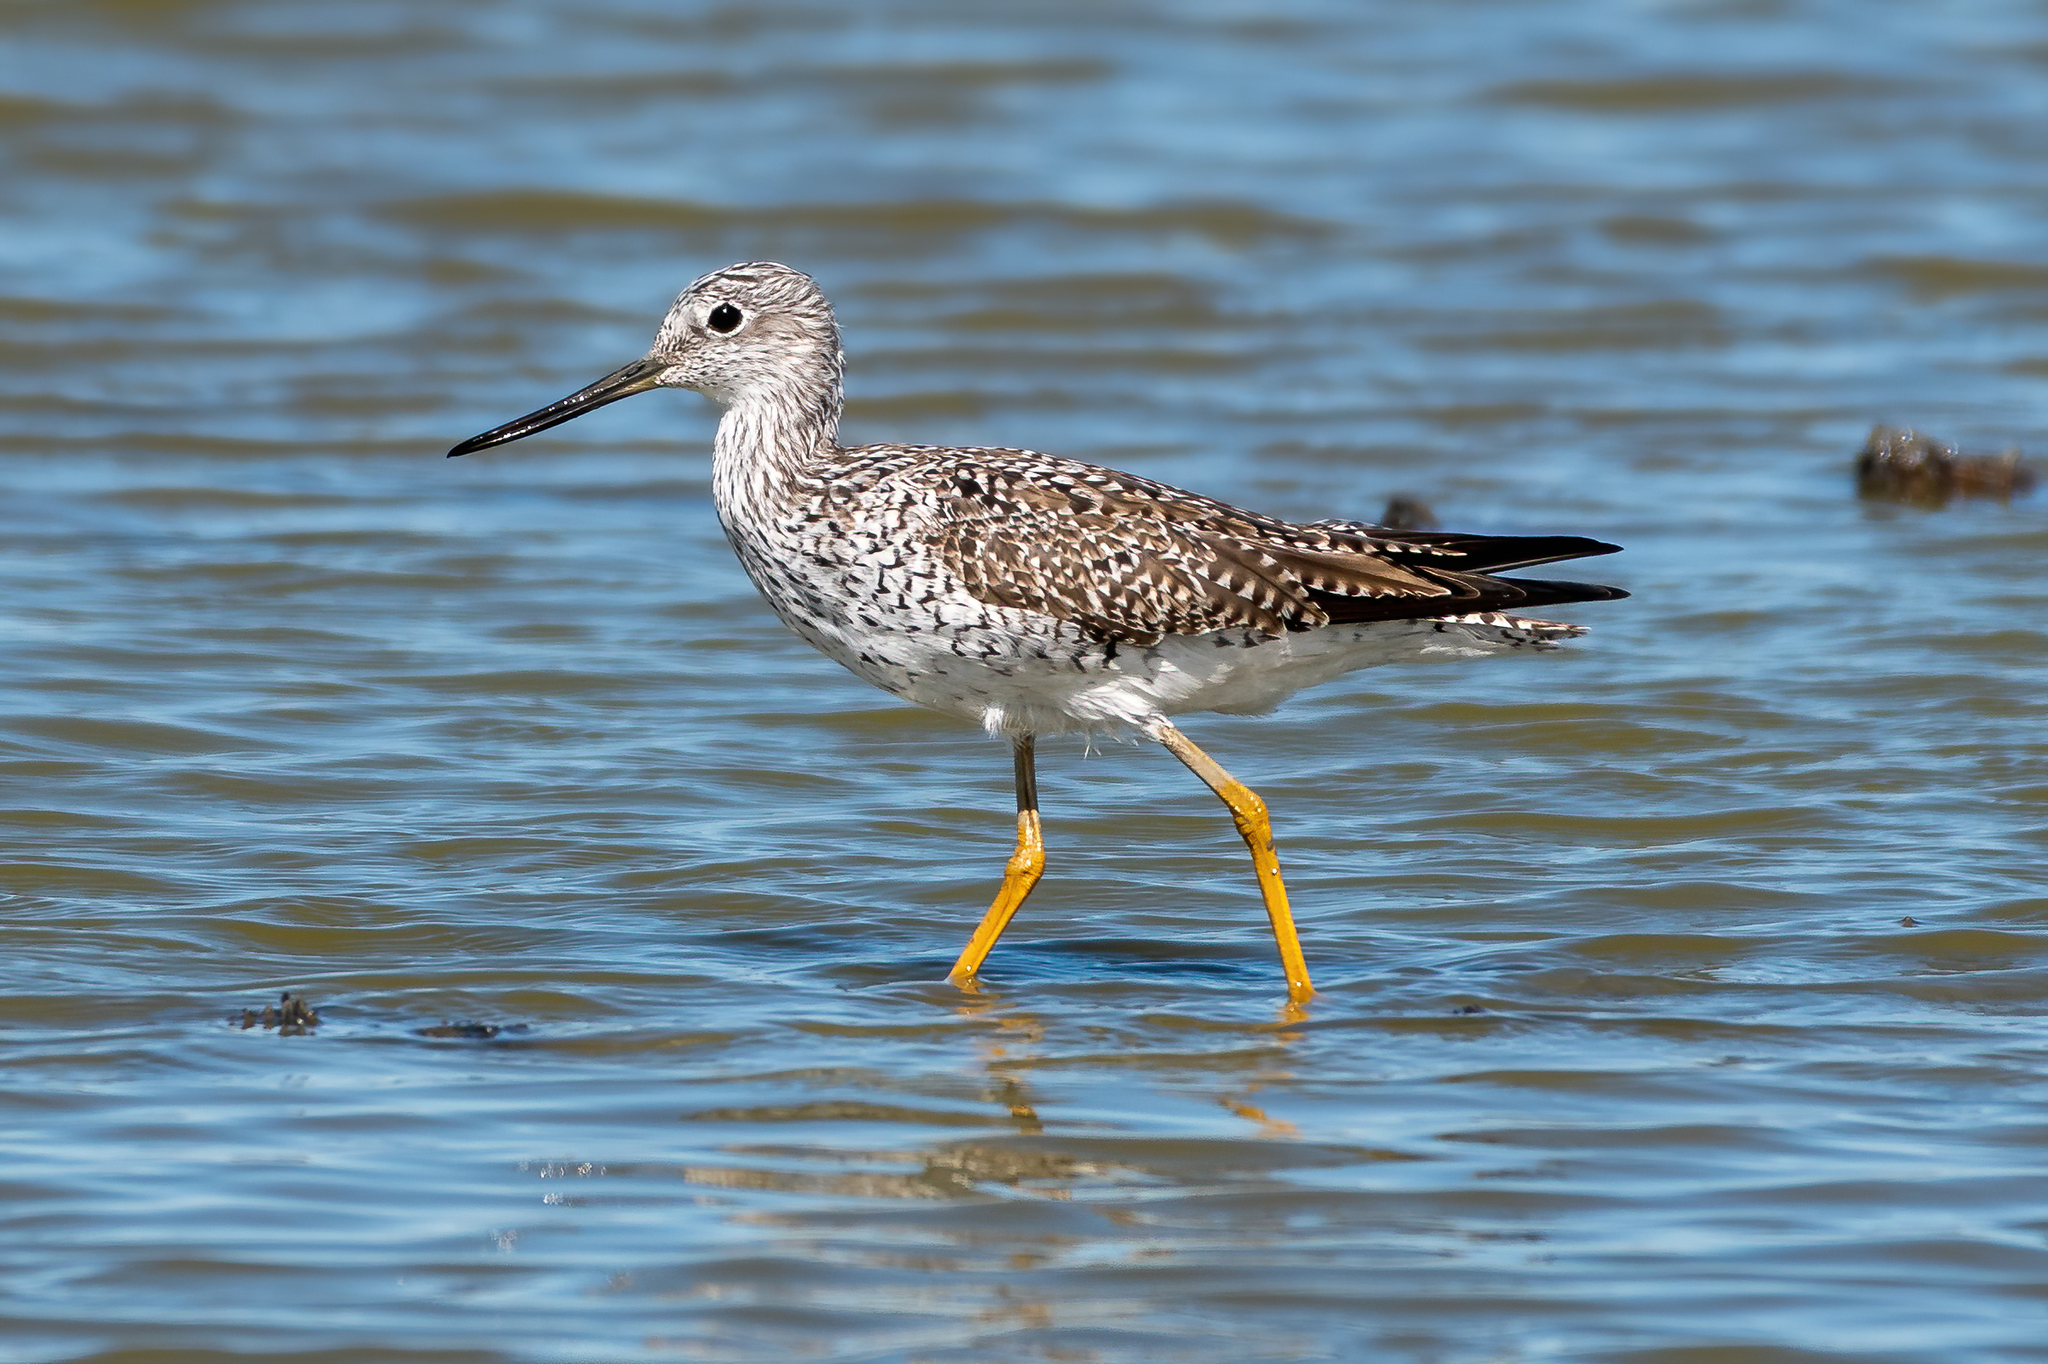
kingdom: Animalia
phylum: Chordata
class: Aves
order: Charadriiformes
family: Scolopacidae
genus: Tringa
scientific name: Tringa melanoleuca
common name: Greater yellowlegs
